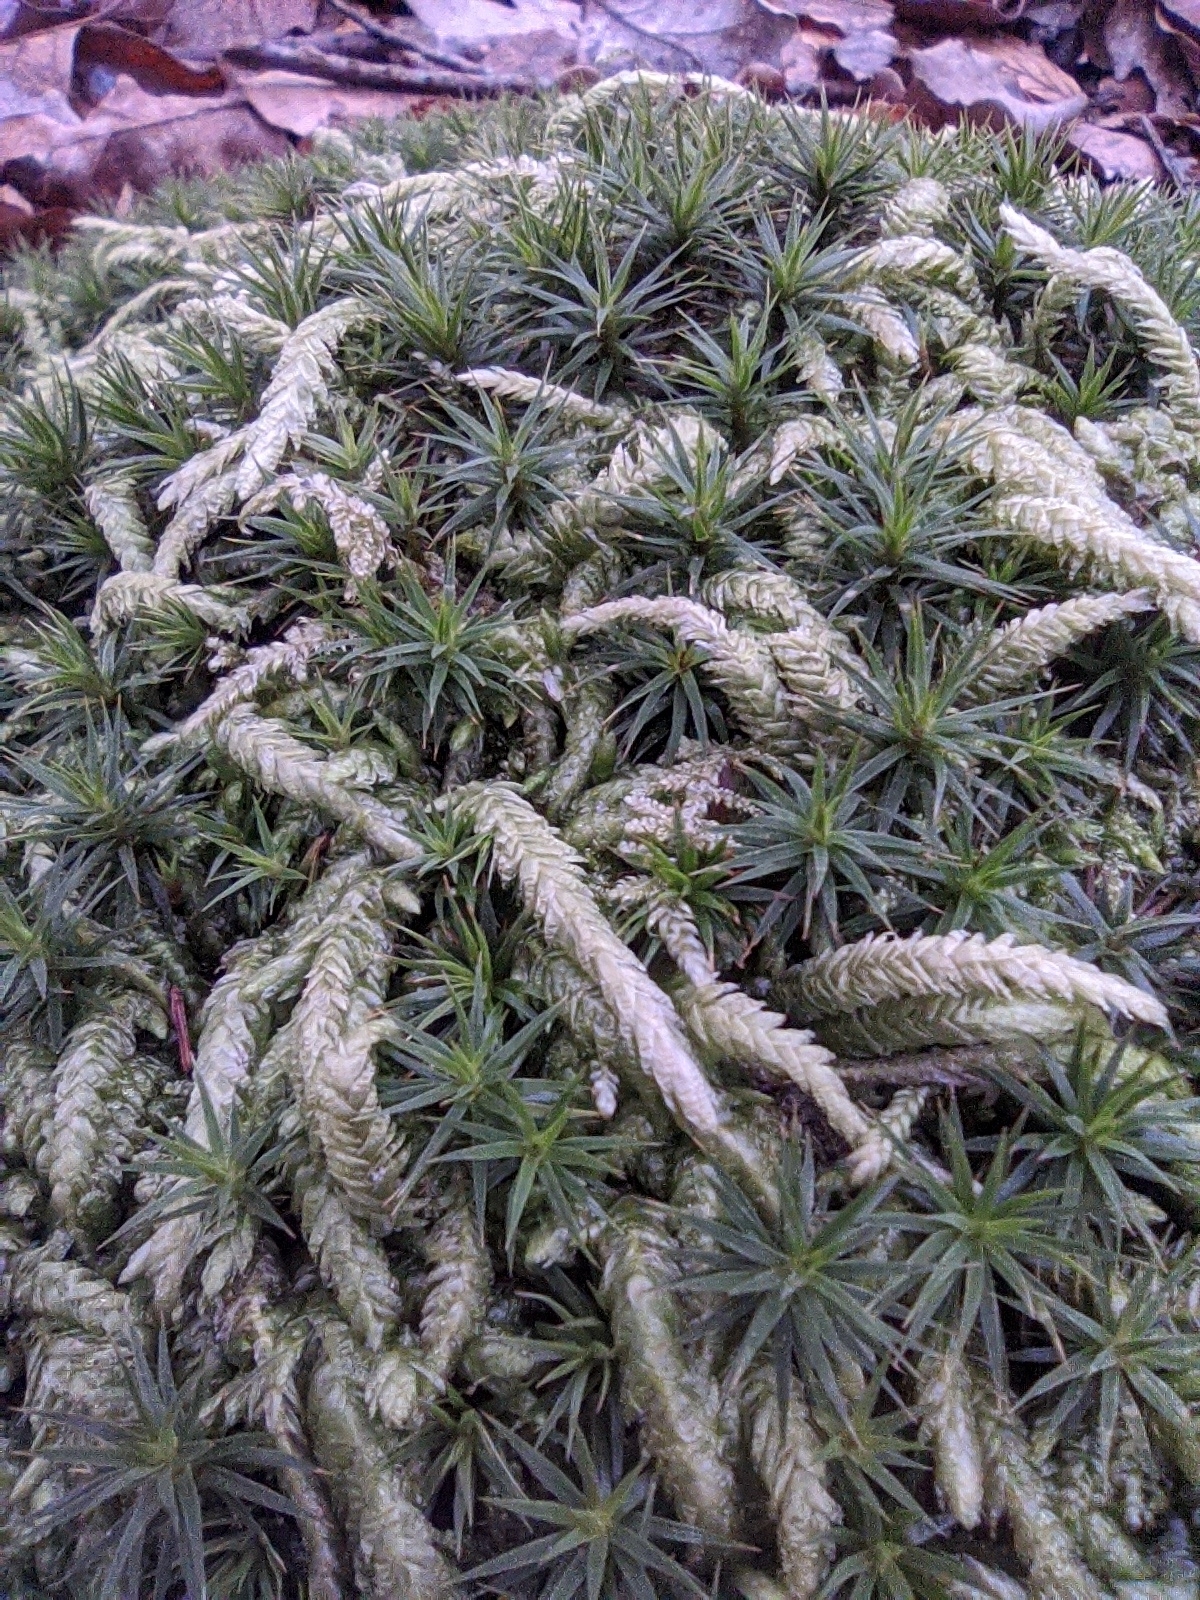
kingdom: Plantae
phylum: Bryophyta
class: Bryopsida
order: Hypnales
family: Plagiotheciaceae
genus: Plagiothecium
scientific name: Plagiothecium undulatum
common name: Waved silk-moss
